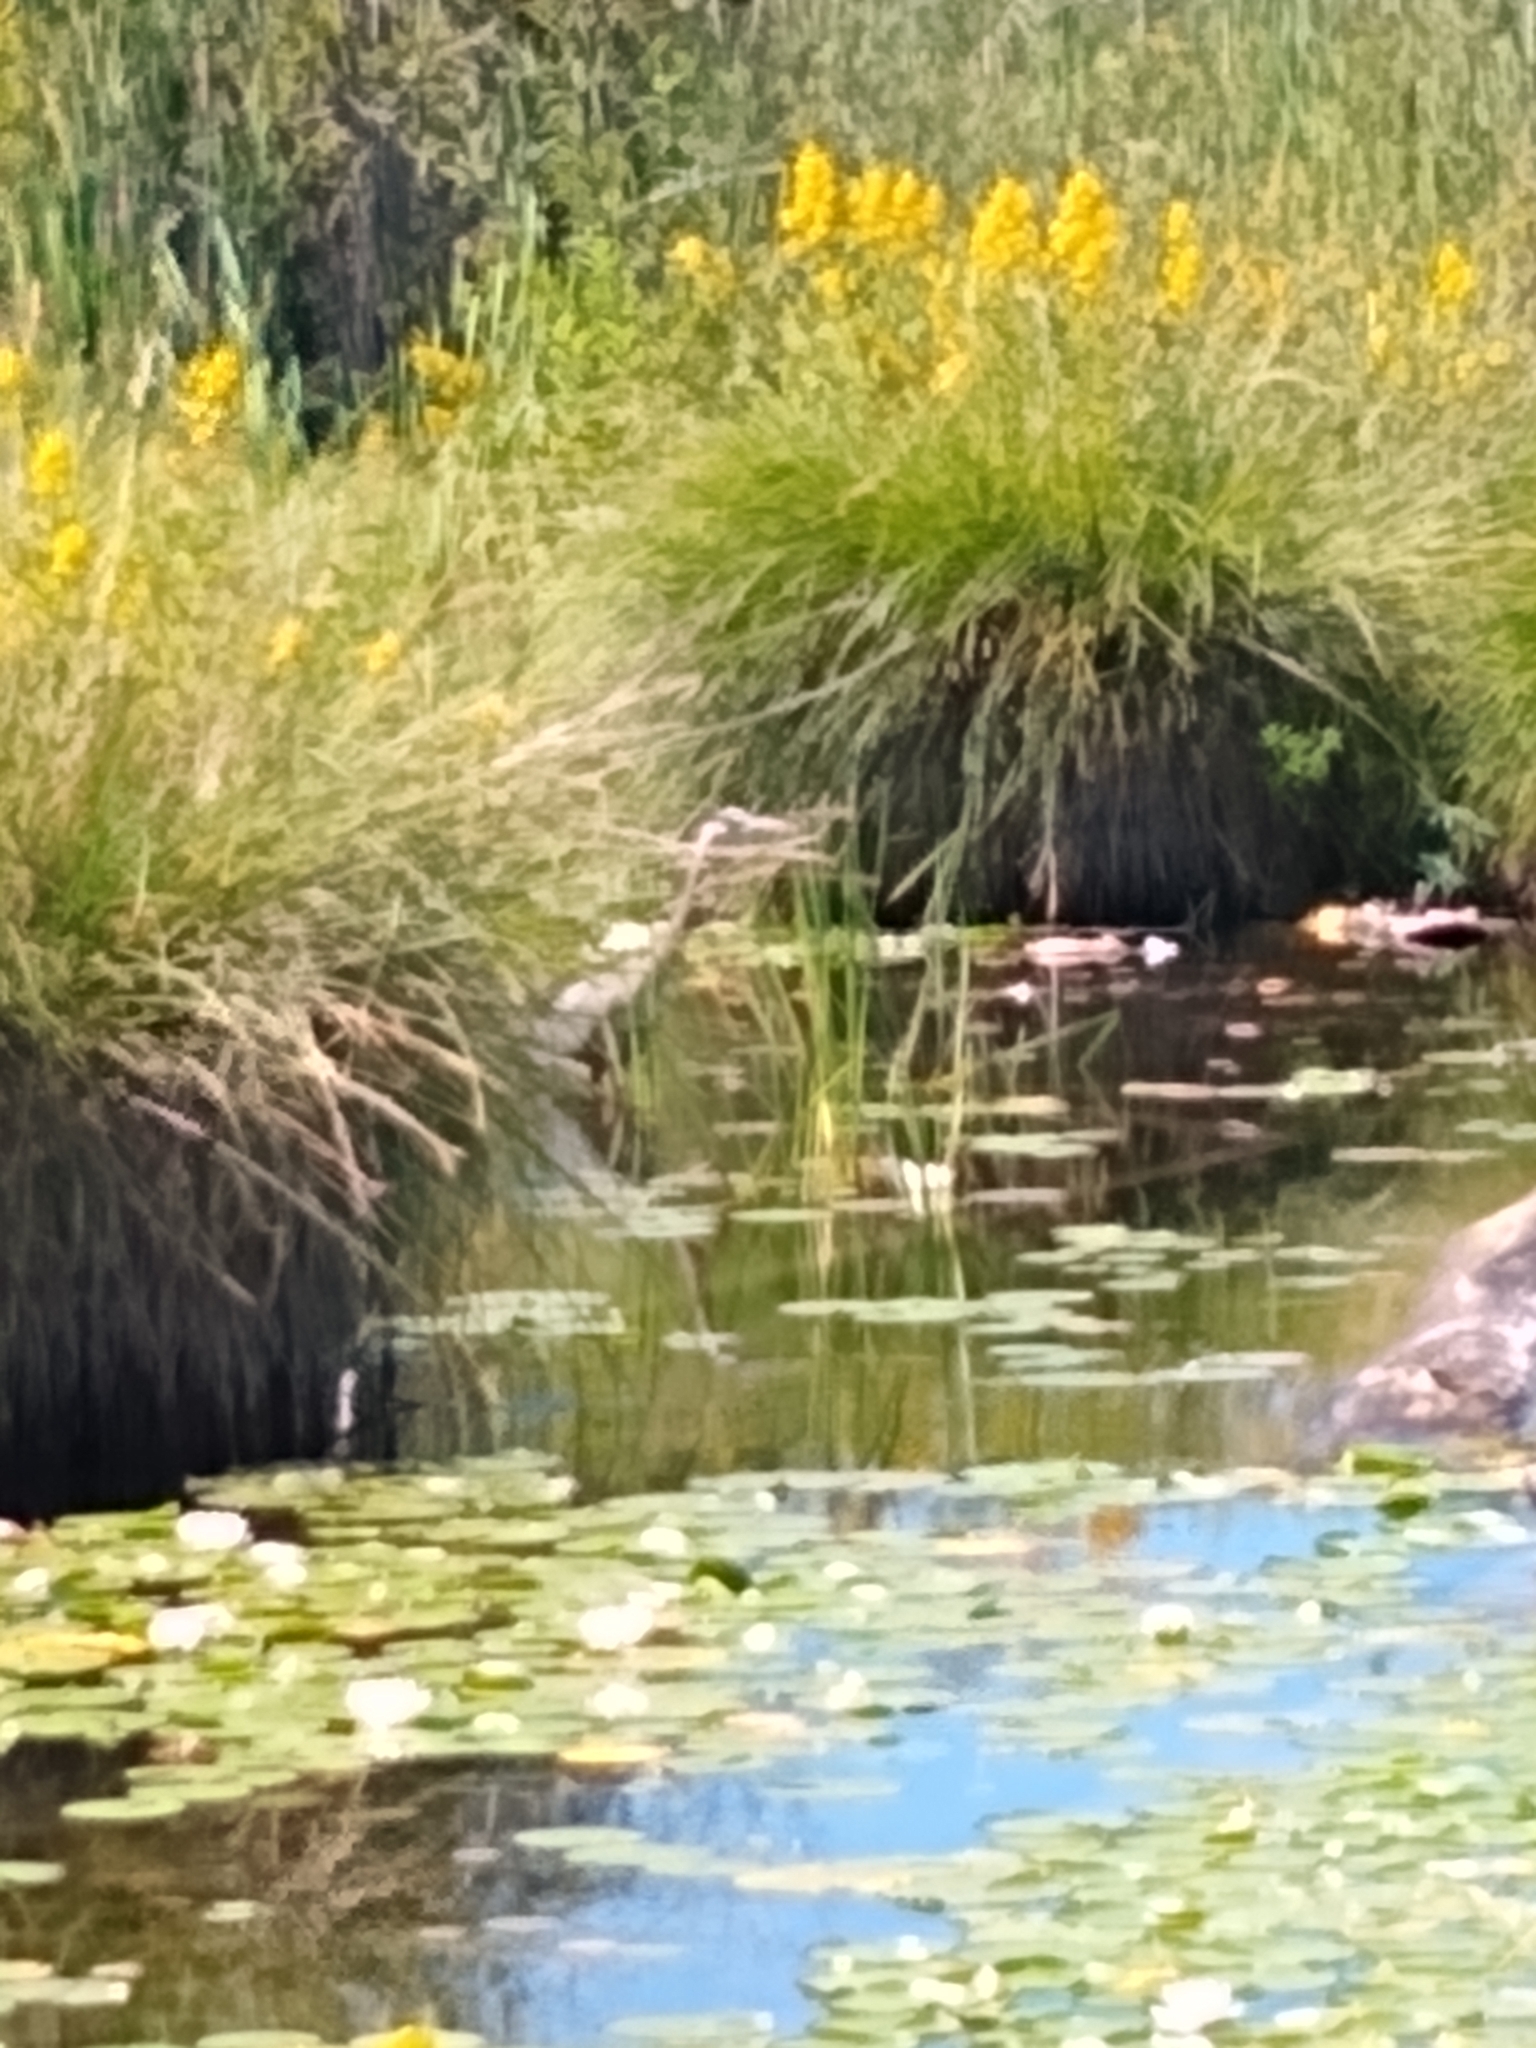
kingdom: Animalia
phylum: Chordata
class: Aves
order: Pelecaniformes
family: Ardeidae
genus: Ardea
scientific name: Ardea herodias
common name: Great blue heron
